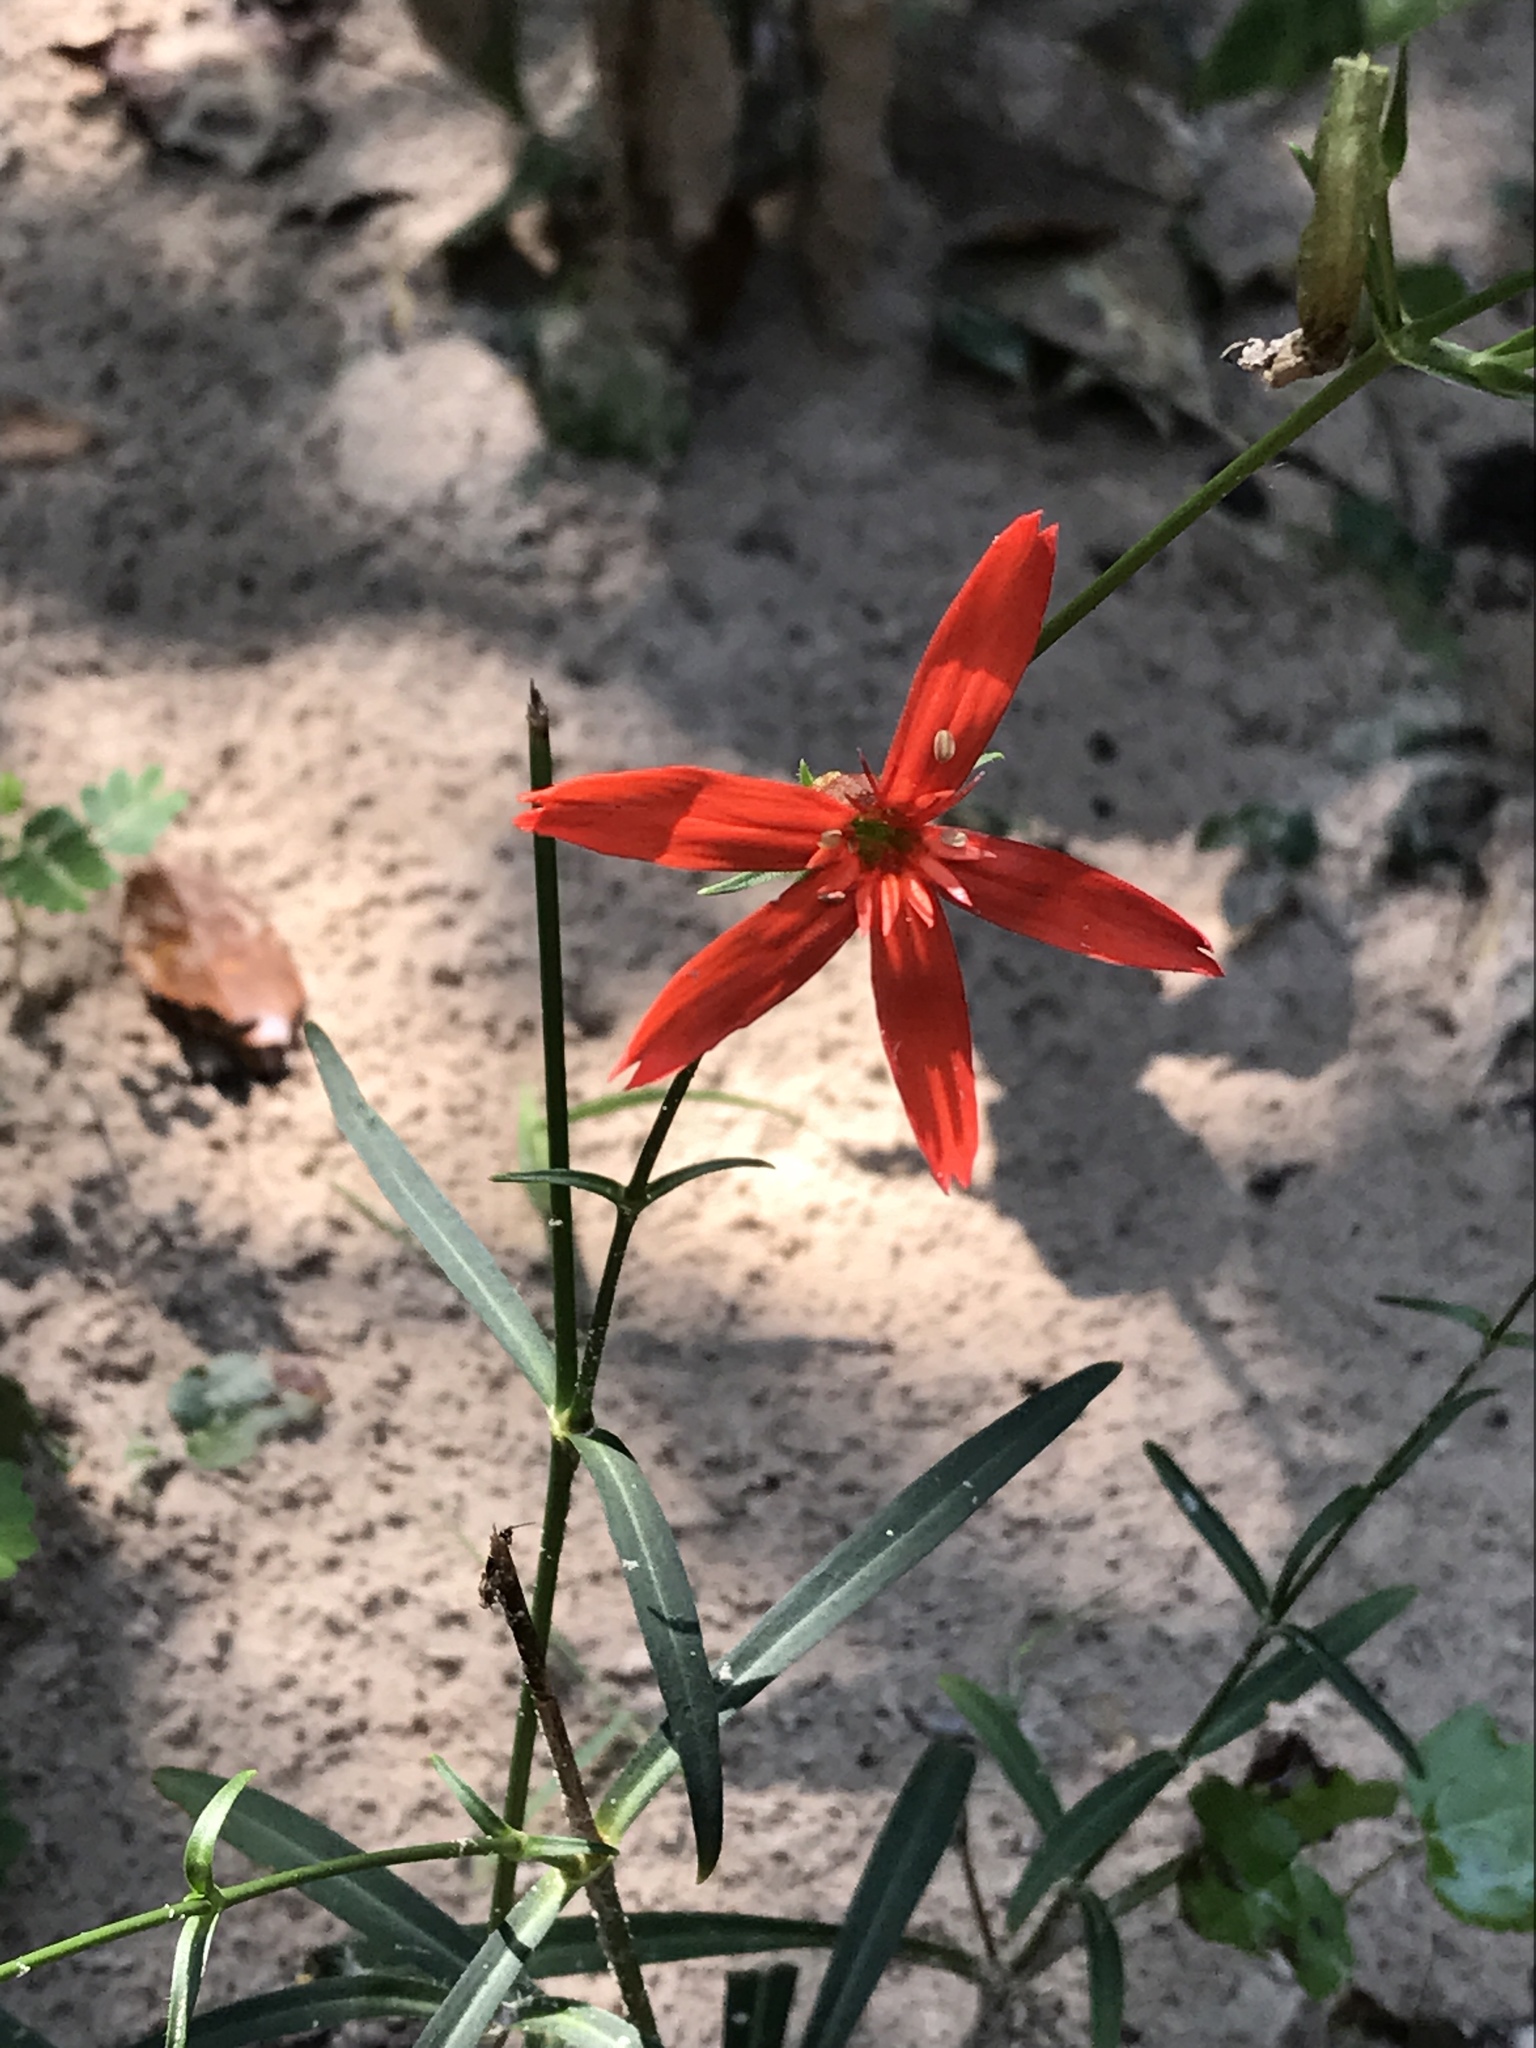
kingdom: Plantae
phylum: Tracheophyta
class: Magnoliopsida
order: Caryophyllales
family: Caryophyllaceae
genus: Silene
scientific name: Silene subciliata
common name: Prairie fire-pink
